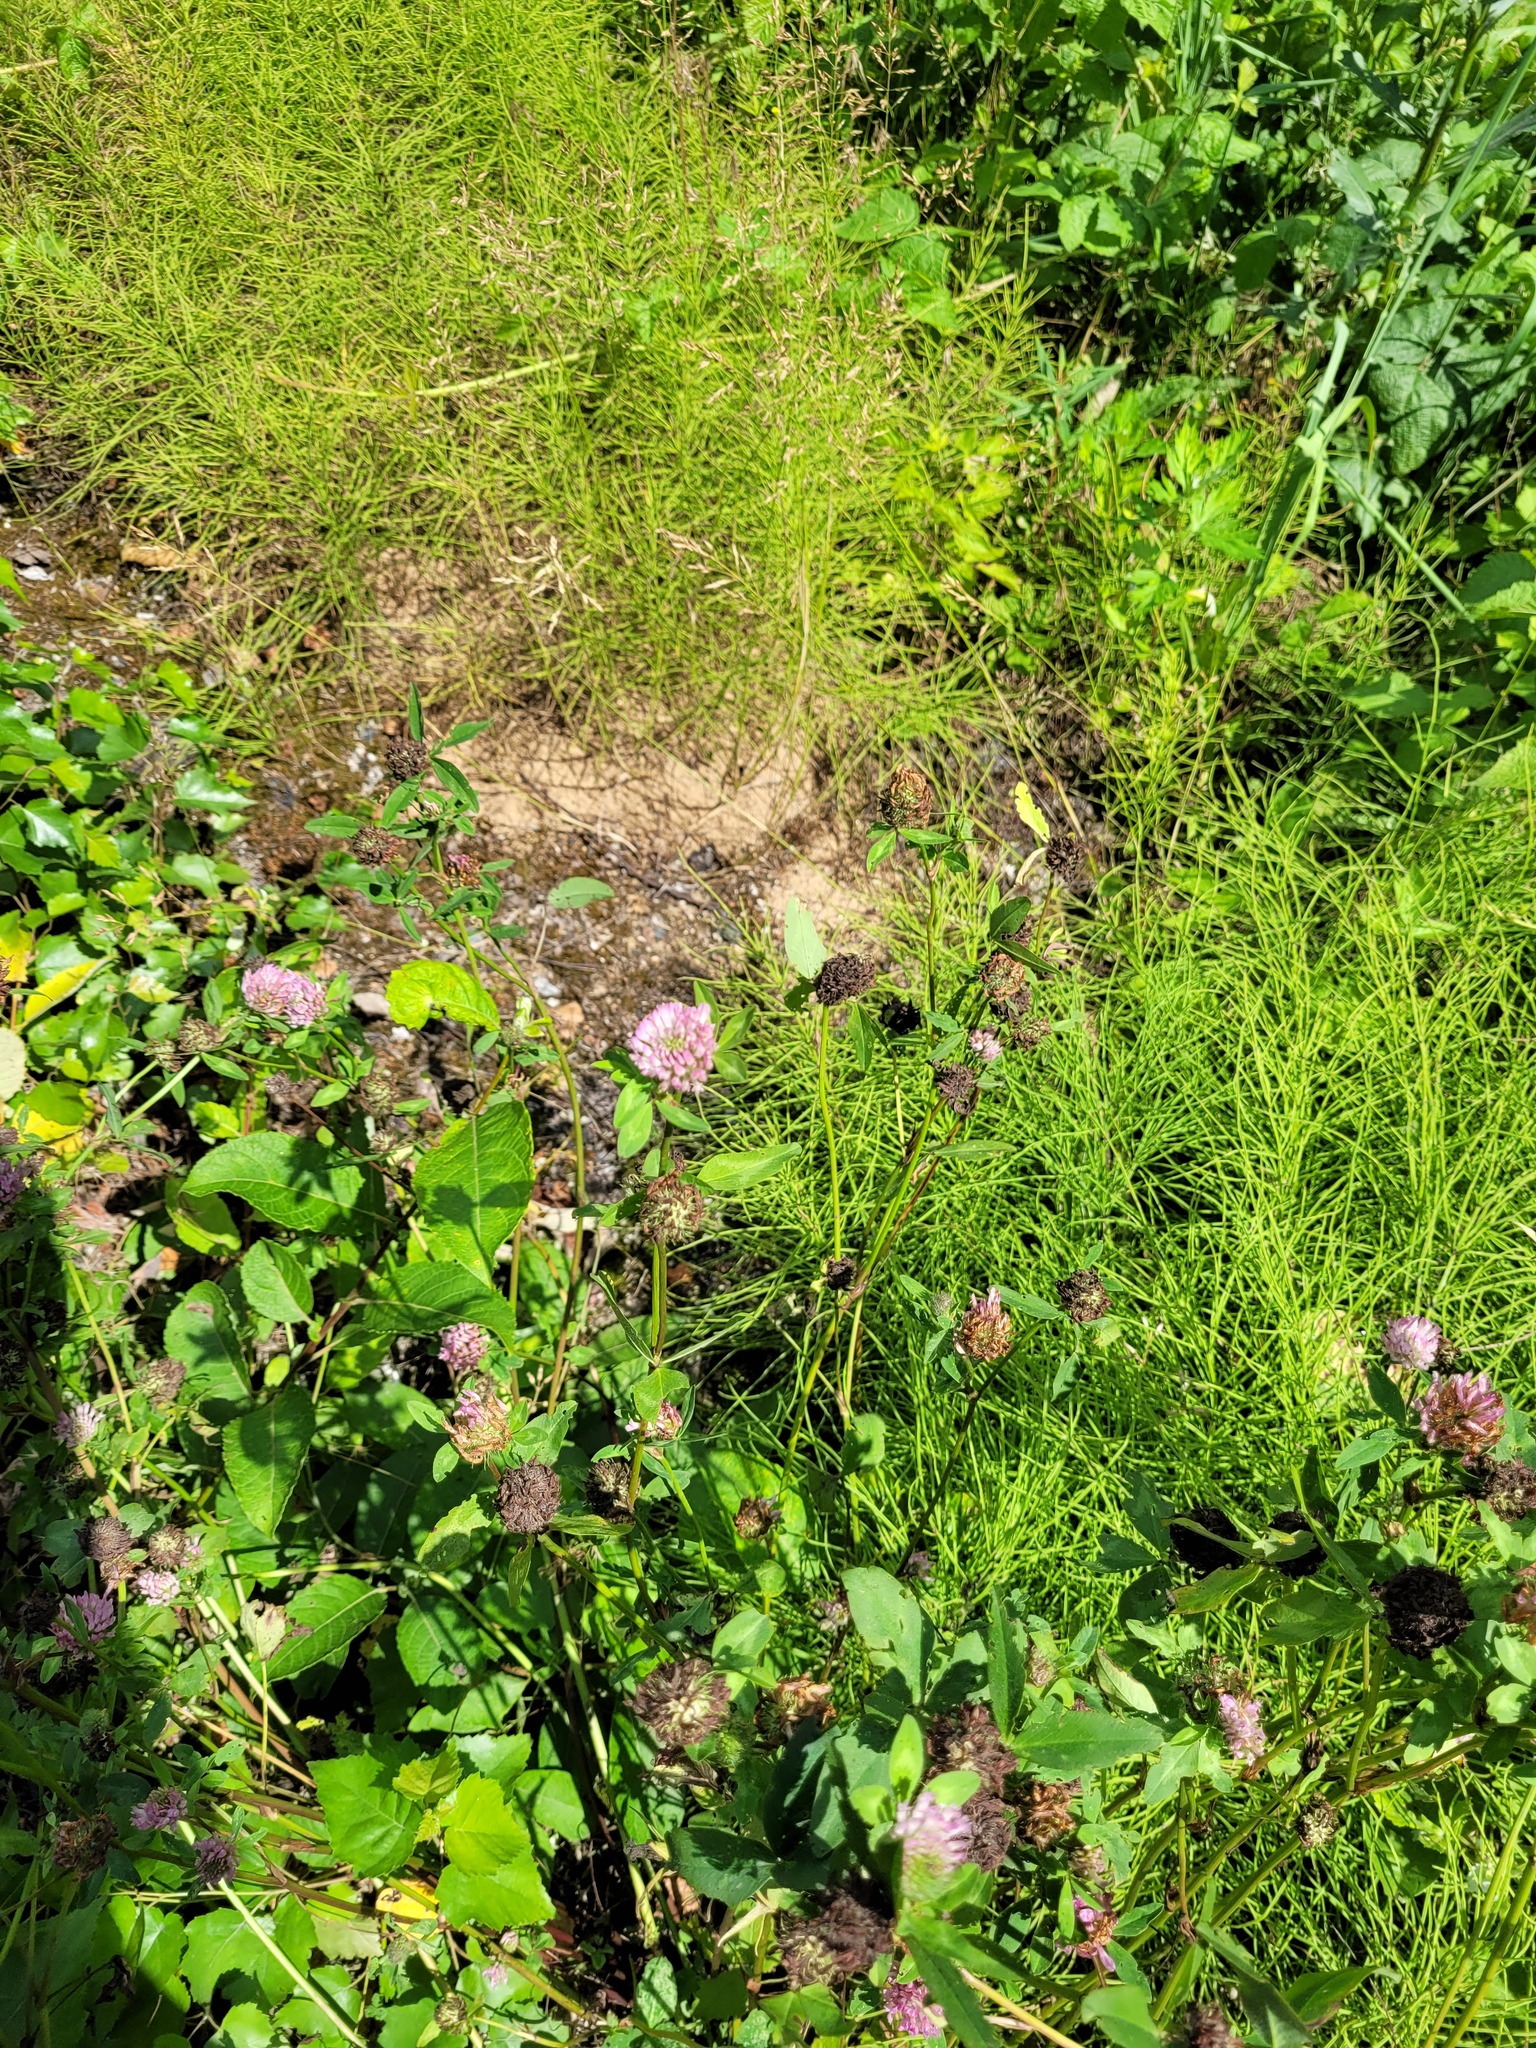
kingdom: Plantae
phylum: Tracheophyta
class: Magnoliopsida
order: Fabales
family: Fabaceae
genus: Trifolium
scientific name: Trifolium pratense
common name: Red clover
